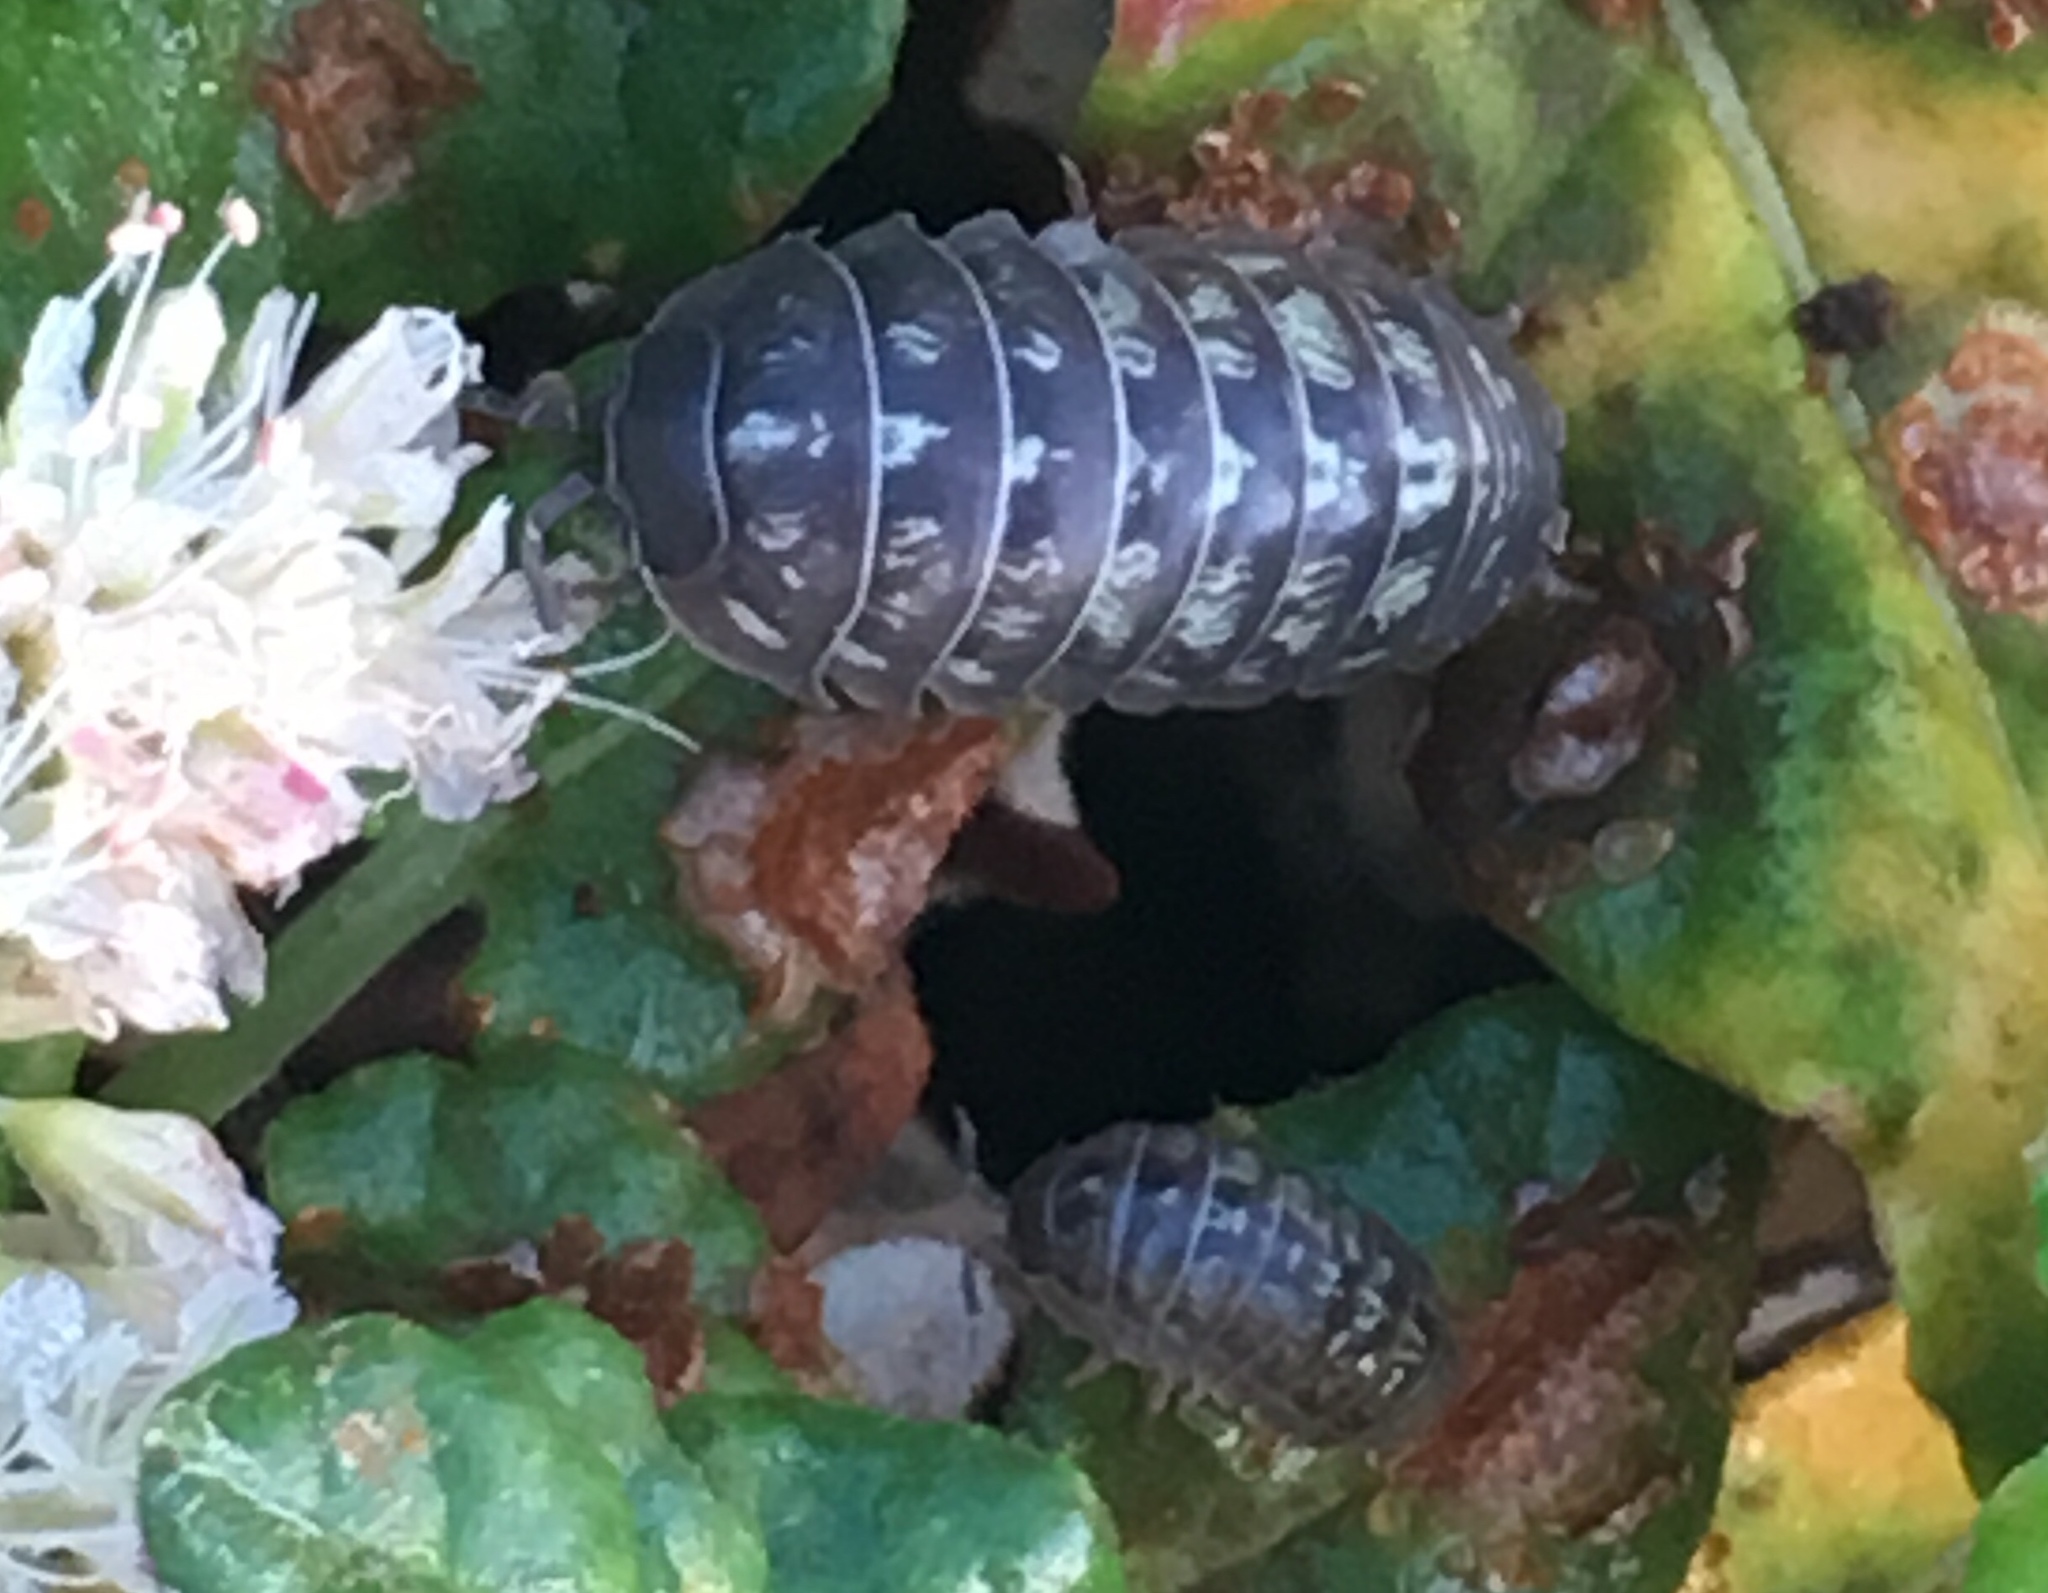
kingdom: Animalia
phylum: Arthropoda
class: Malacostraca
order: Isopoda
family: Armadillidiidae
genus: Armadillidium
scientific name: Armadillidium vulgare
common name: Common pill woodlouse
